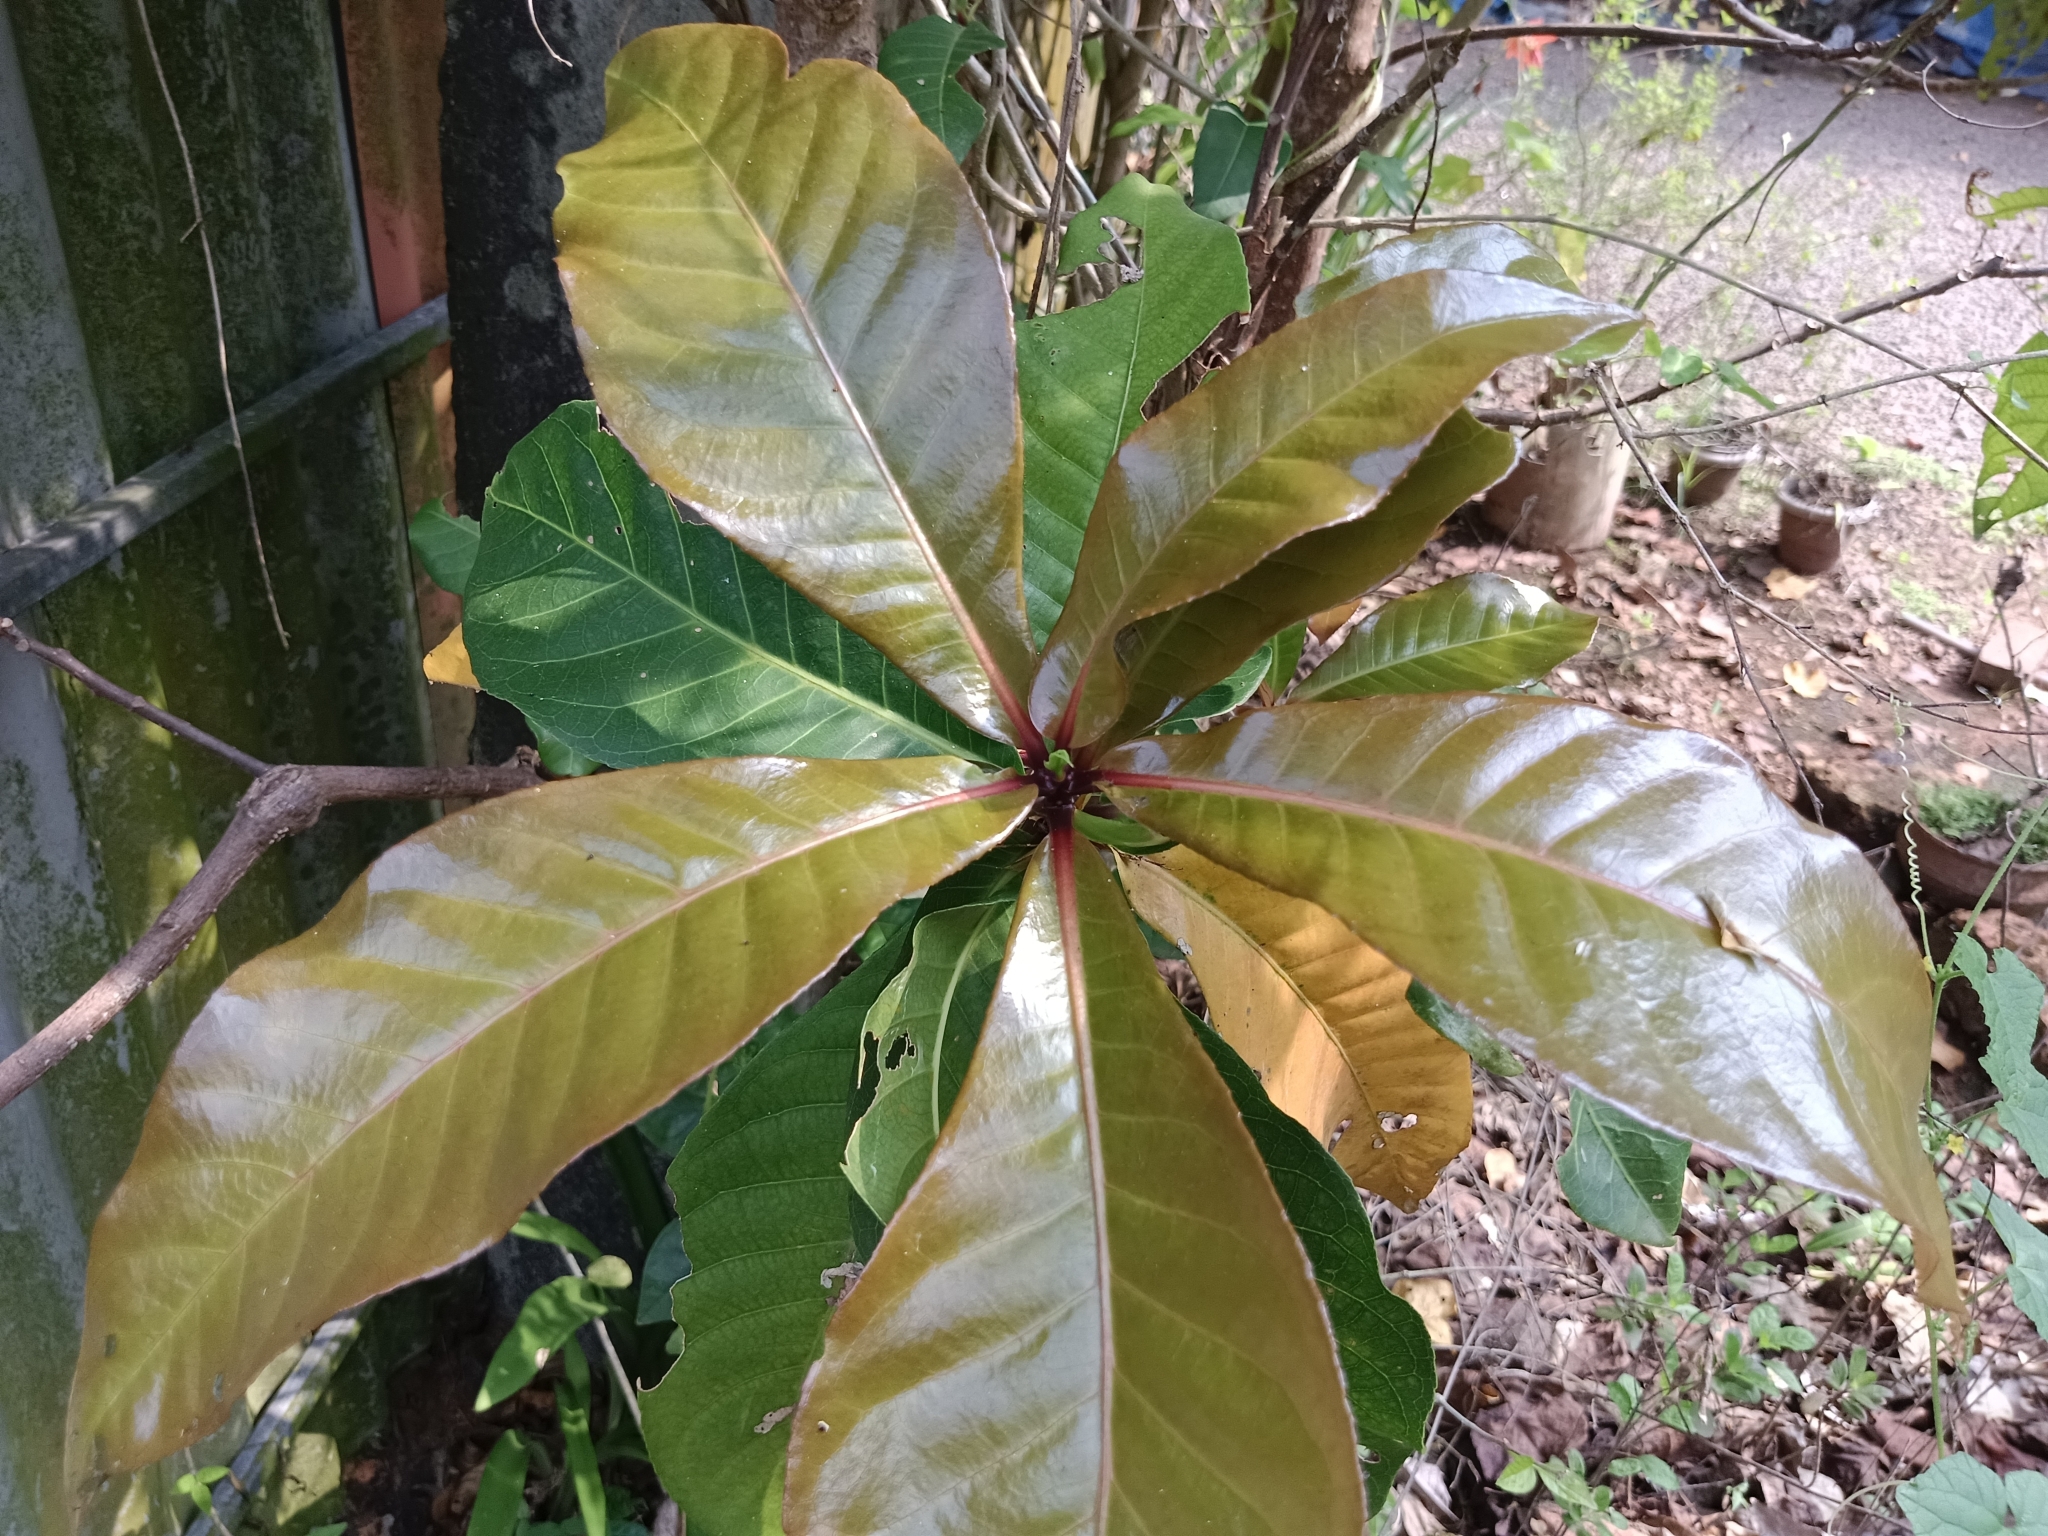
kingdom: Plantae
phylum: Tracheophyta
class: Magnoliopsida
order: Ericales
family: Lecythidaceae
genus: Barringtonia
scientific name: Barringtonia racemosa
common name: Brackwater mangrove
